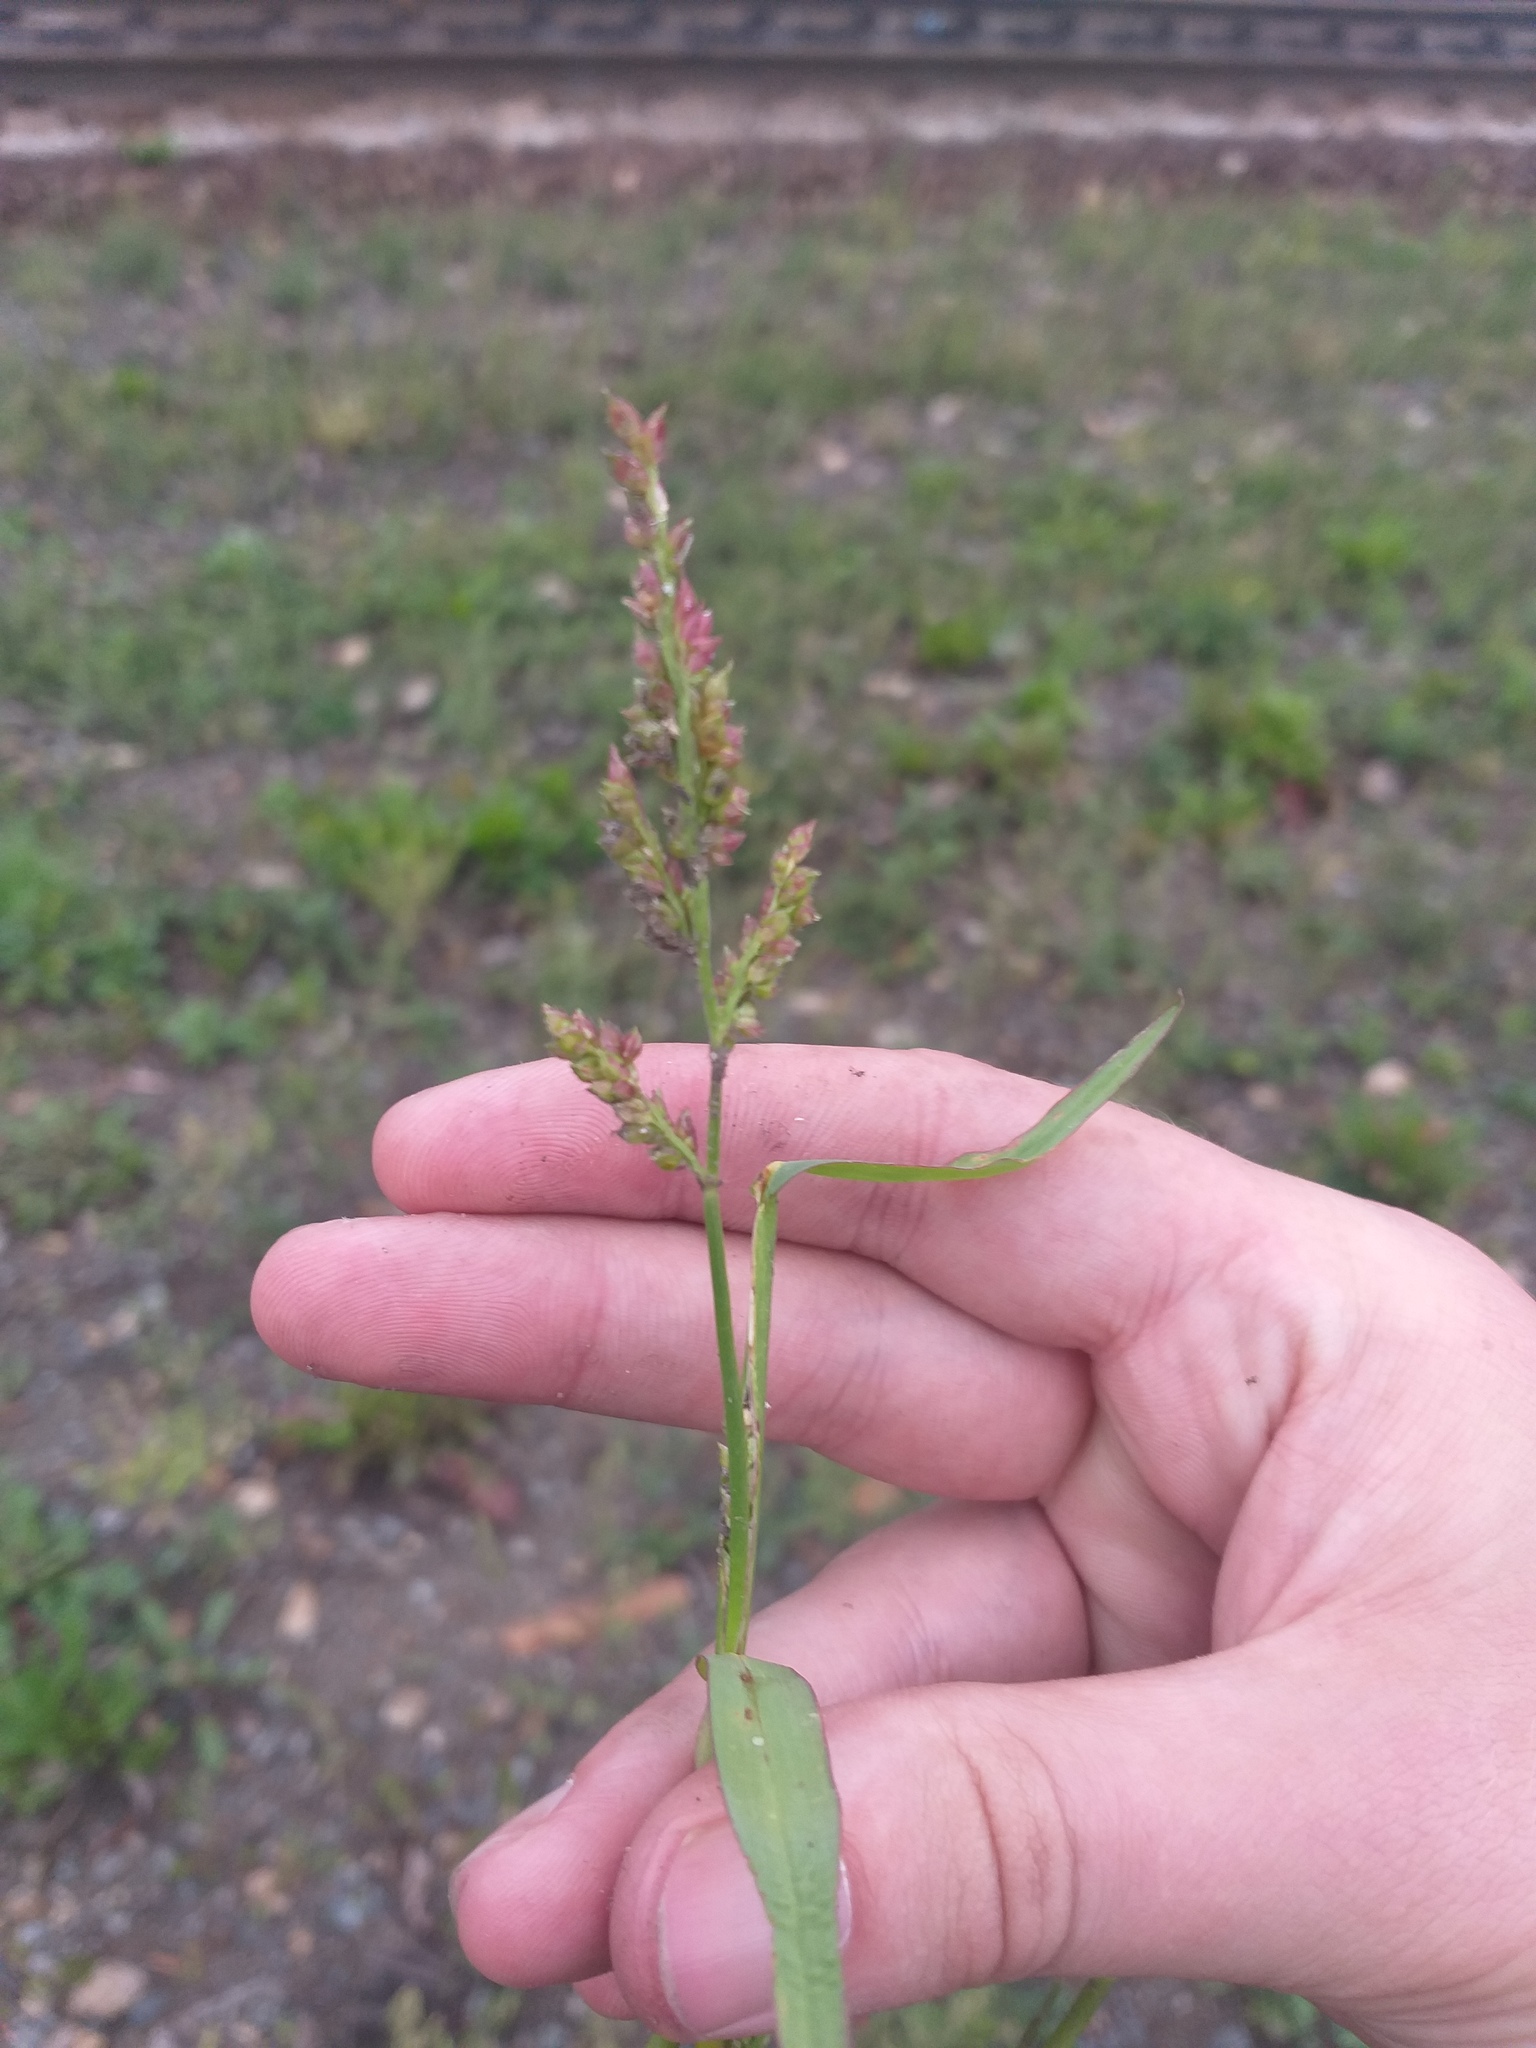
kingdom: Plantae
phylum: Tracheophyta
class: Liliopsida
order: Poales
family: Poaceae
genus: Echinochloa
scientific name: Echinochloa crus-galli
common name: Cockspur
